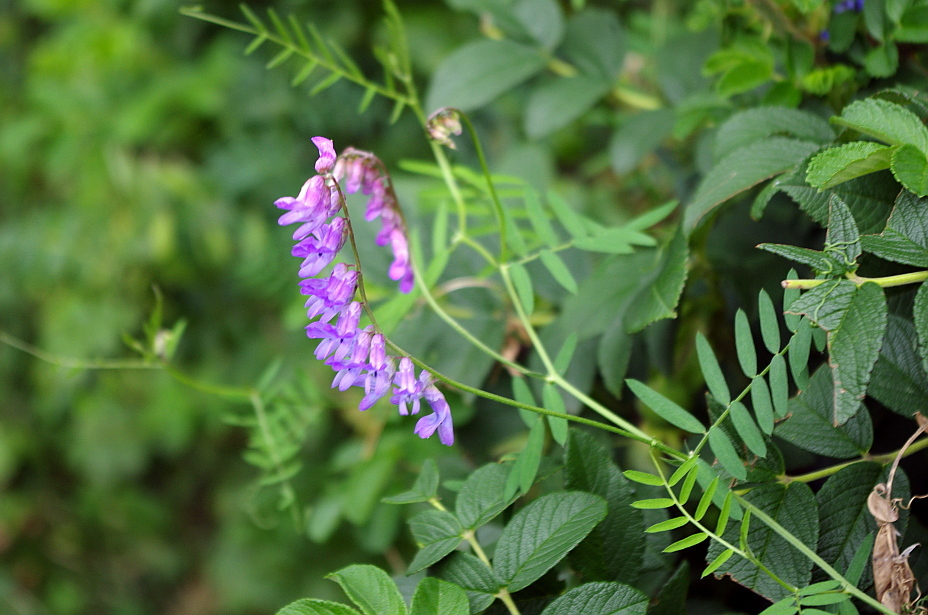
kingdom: Plantae
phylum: Tracheophyta
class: Magnoliopsida
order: Fabales
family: Fabaceae
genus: Vicia
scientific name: Vicia cracca
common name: Bird vetch
